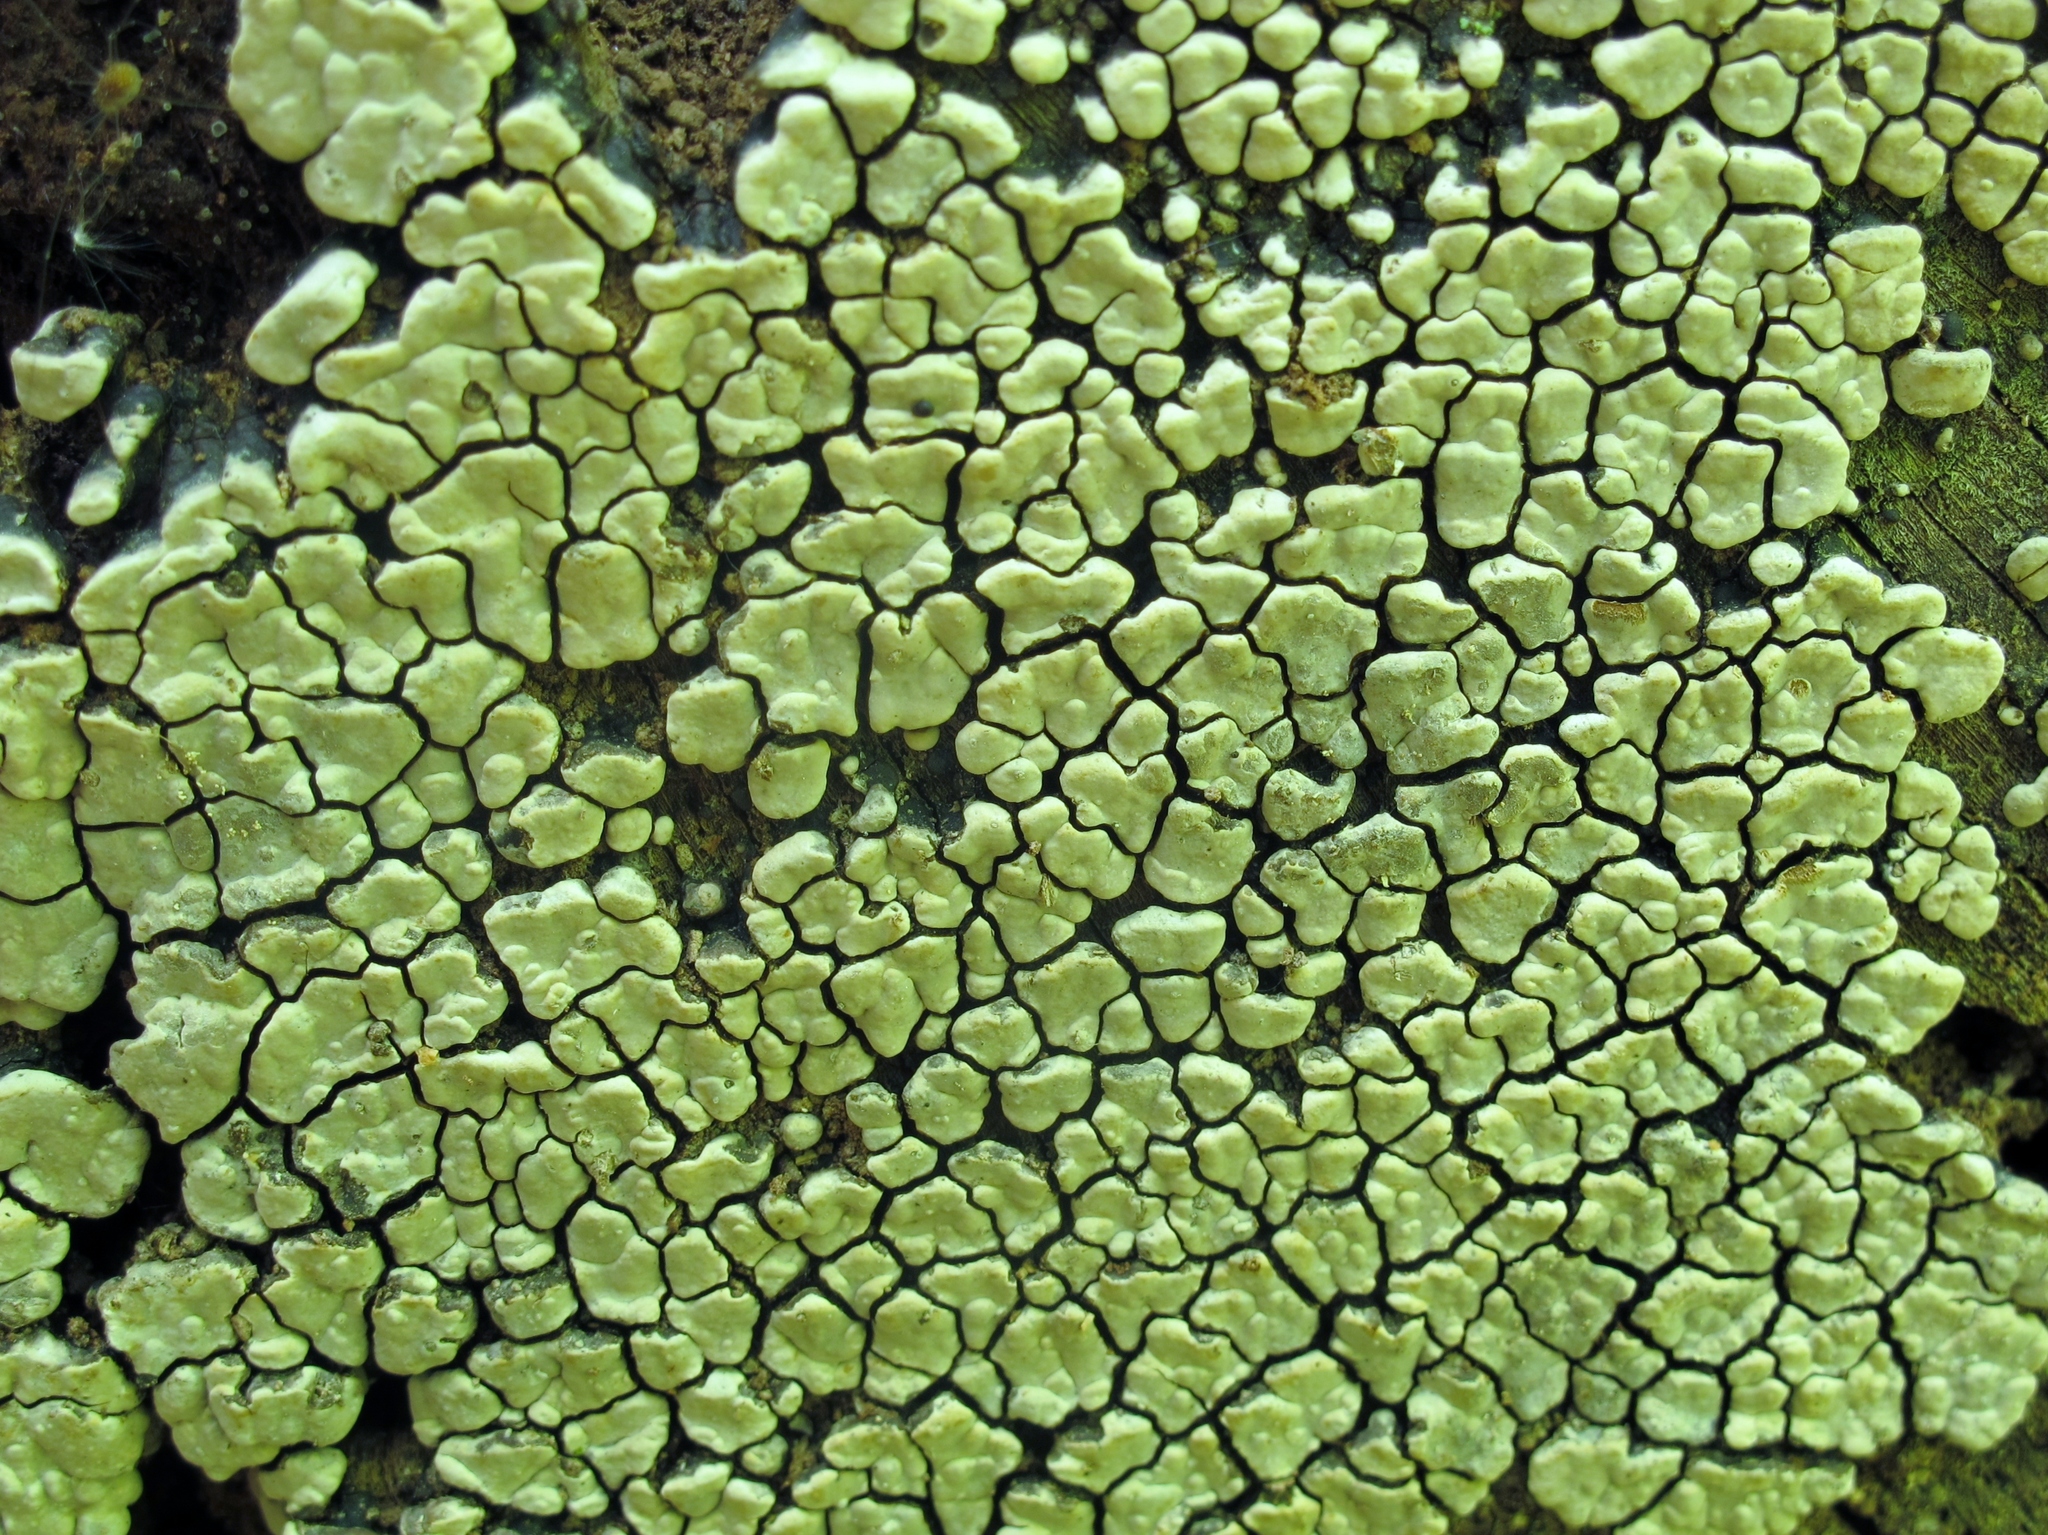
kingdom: Fungi
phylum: Basidiomycota
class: Agaricomycetes
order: Russulales
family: Stereaceae
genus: Xylobolus
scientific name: Xylobolus frustulatus
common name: Ceramic parchment
